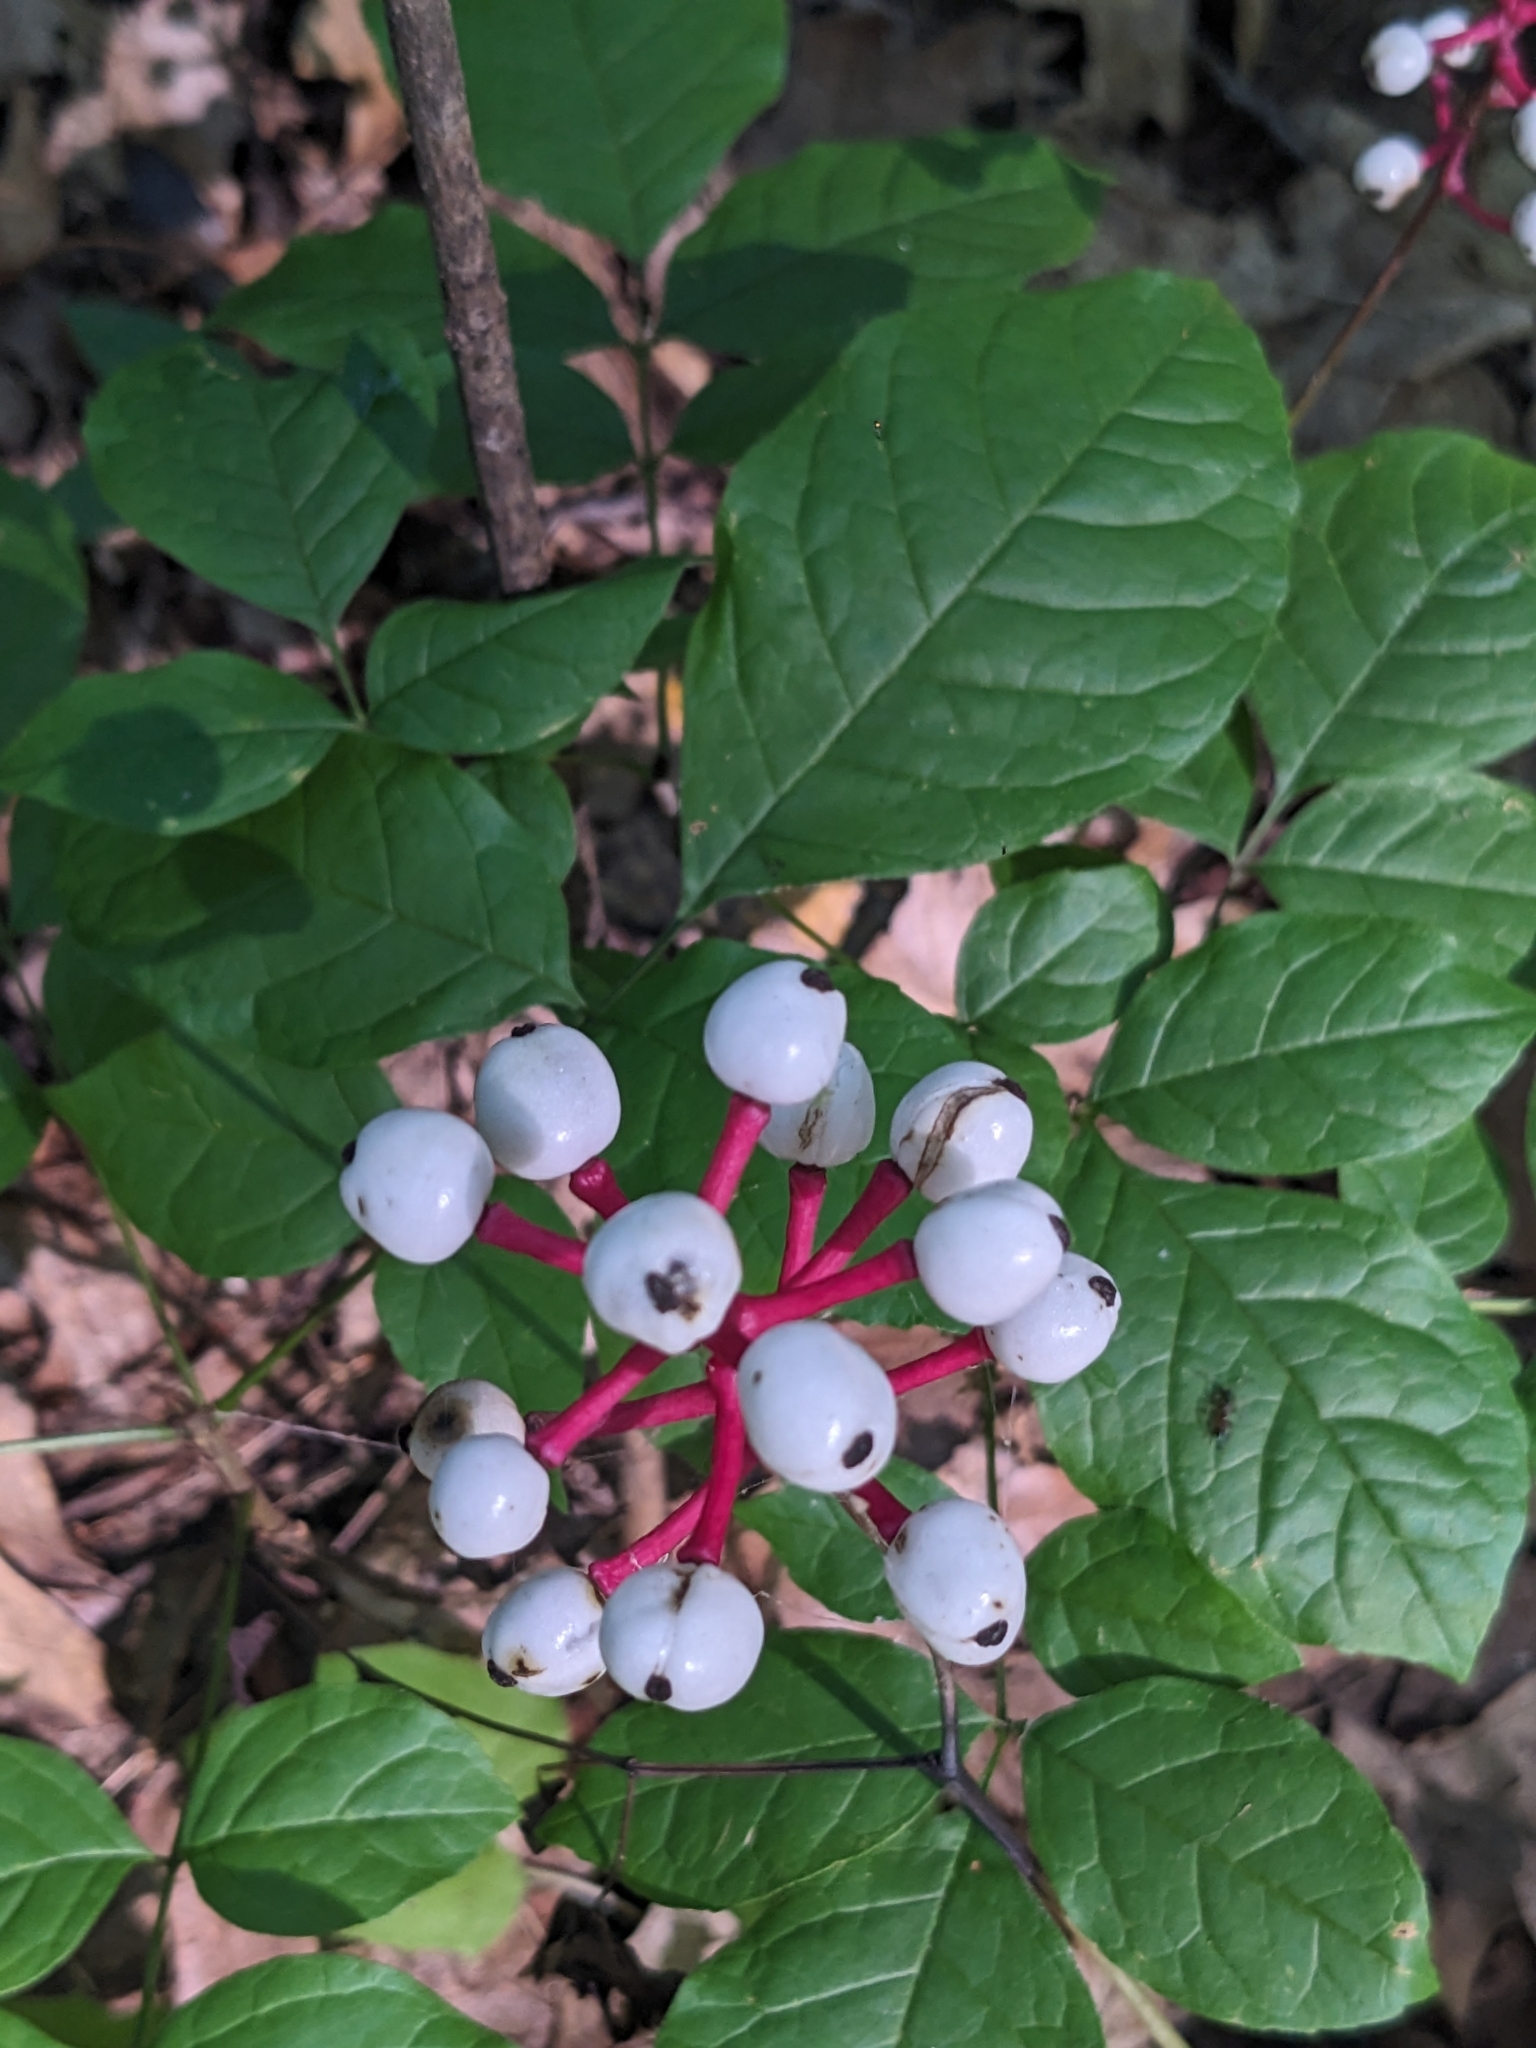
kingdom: Plantae
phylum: Tracheophyta
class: Magnoliopsida
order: Ranunculales
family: Ranunculaceae
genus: Actaea
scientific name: Actaea pachypoda
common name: Doll's-eyes
